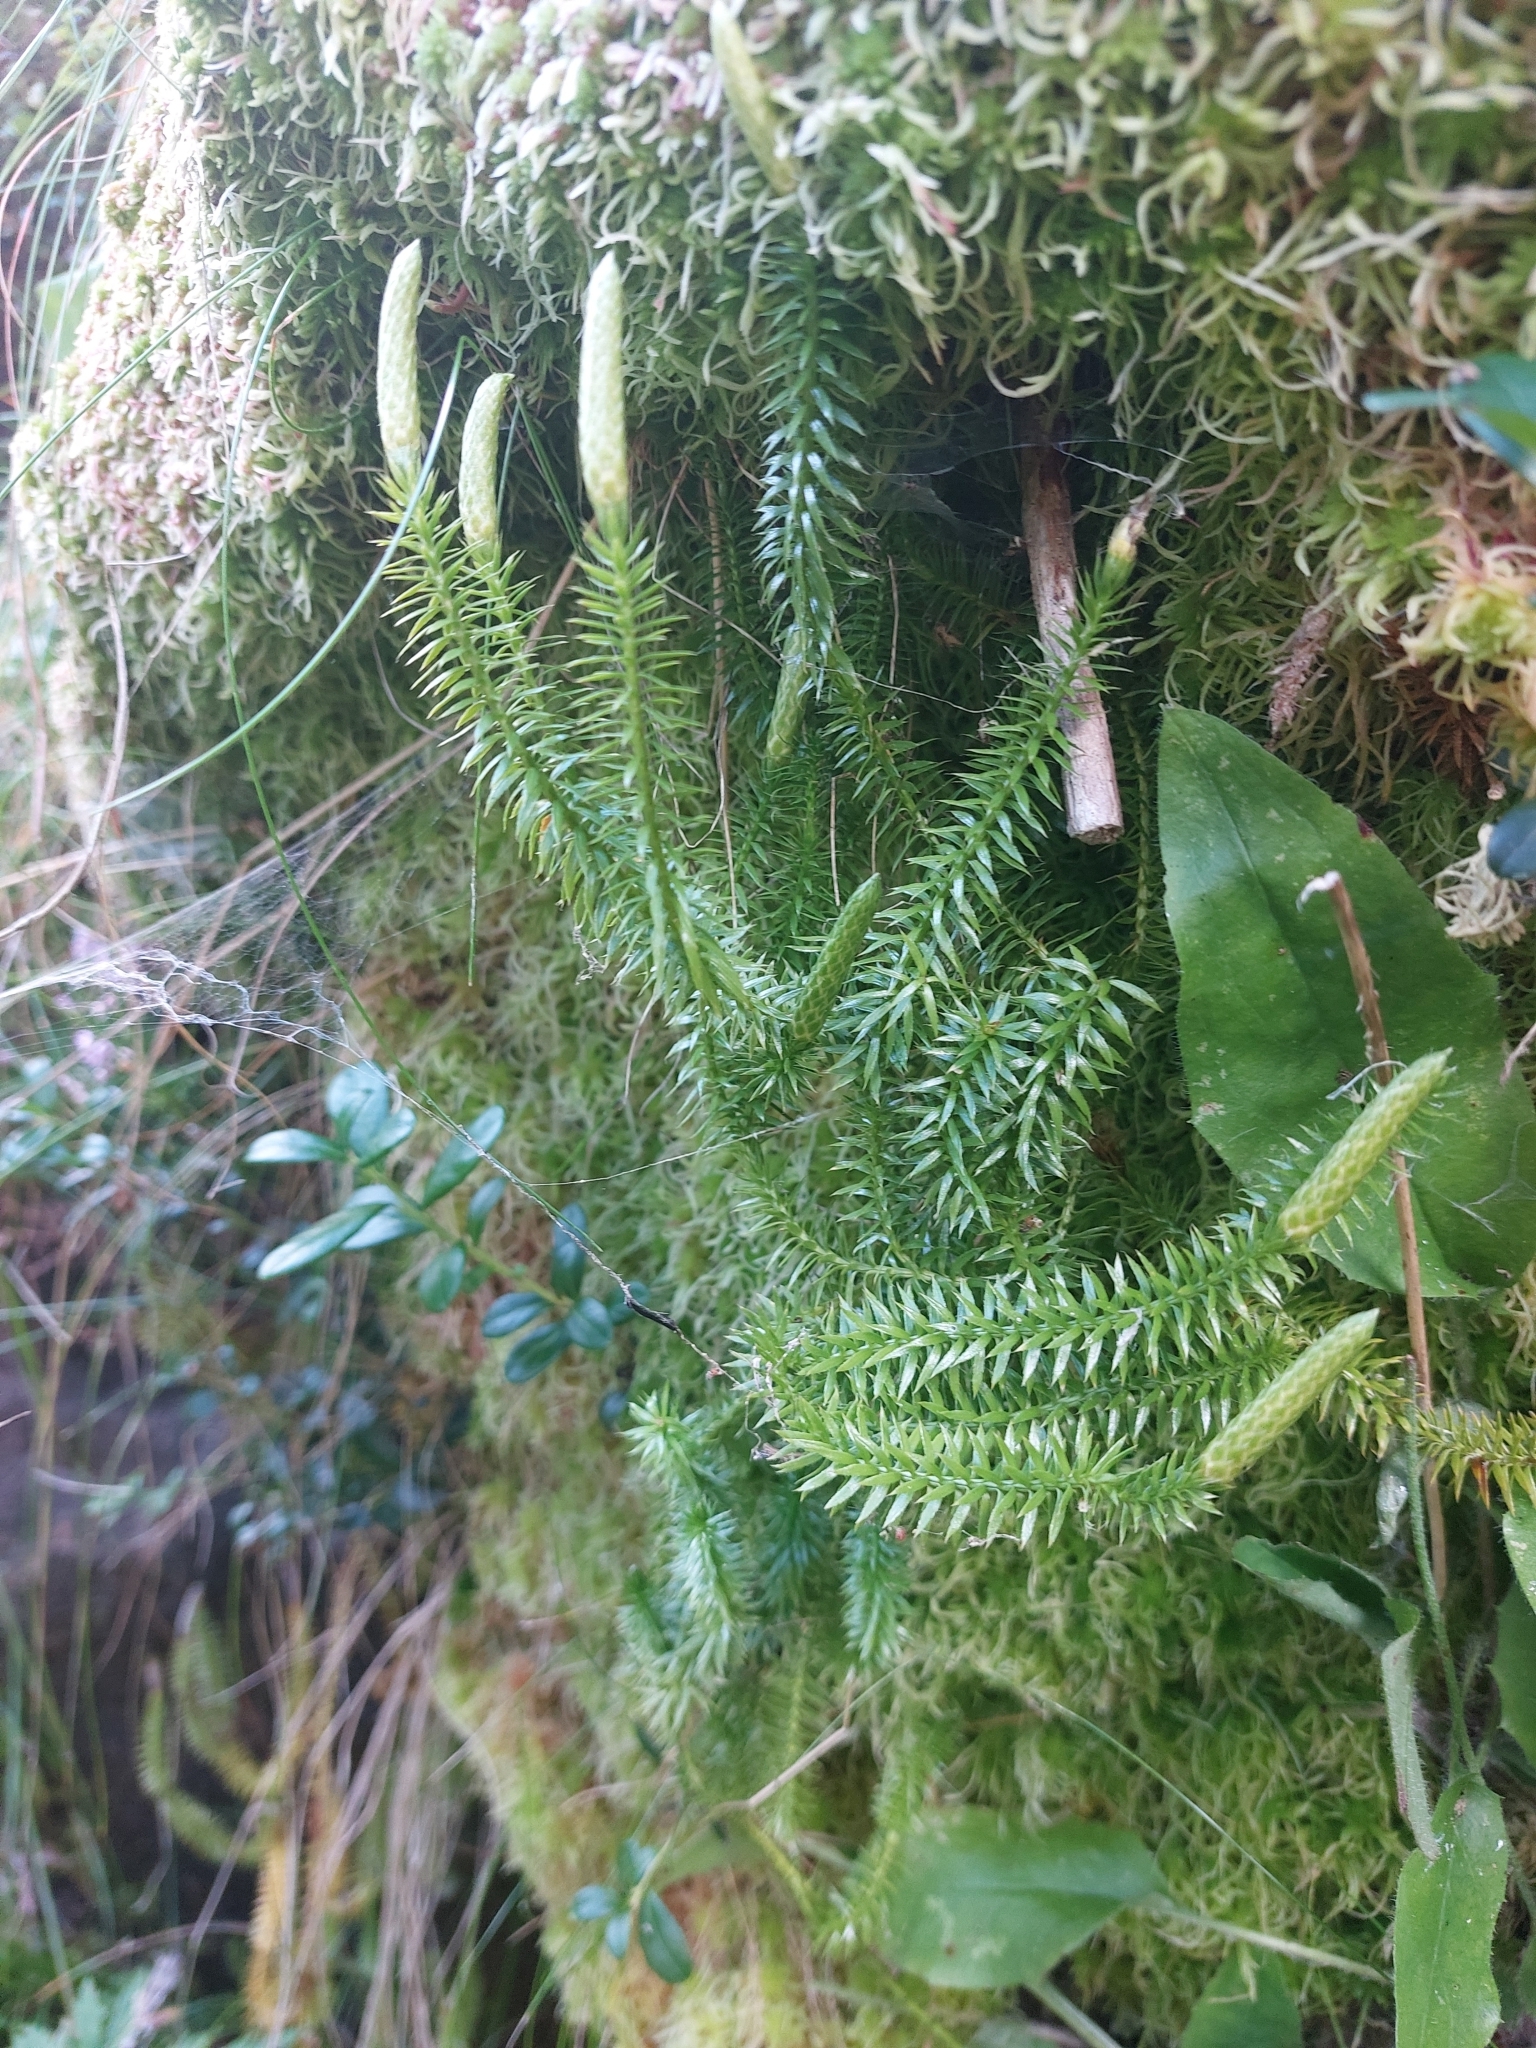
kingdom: Plantae
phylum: Tracheophyta
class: Lycopodiopsida
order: Lycopodiales
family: Lycopodiaceae
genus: Spinulum
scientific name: Spinulum annotinum
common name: Interrupted club-moss
